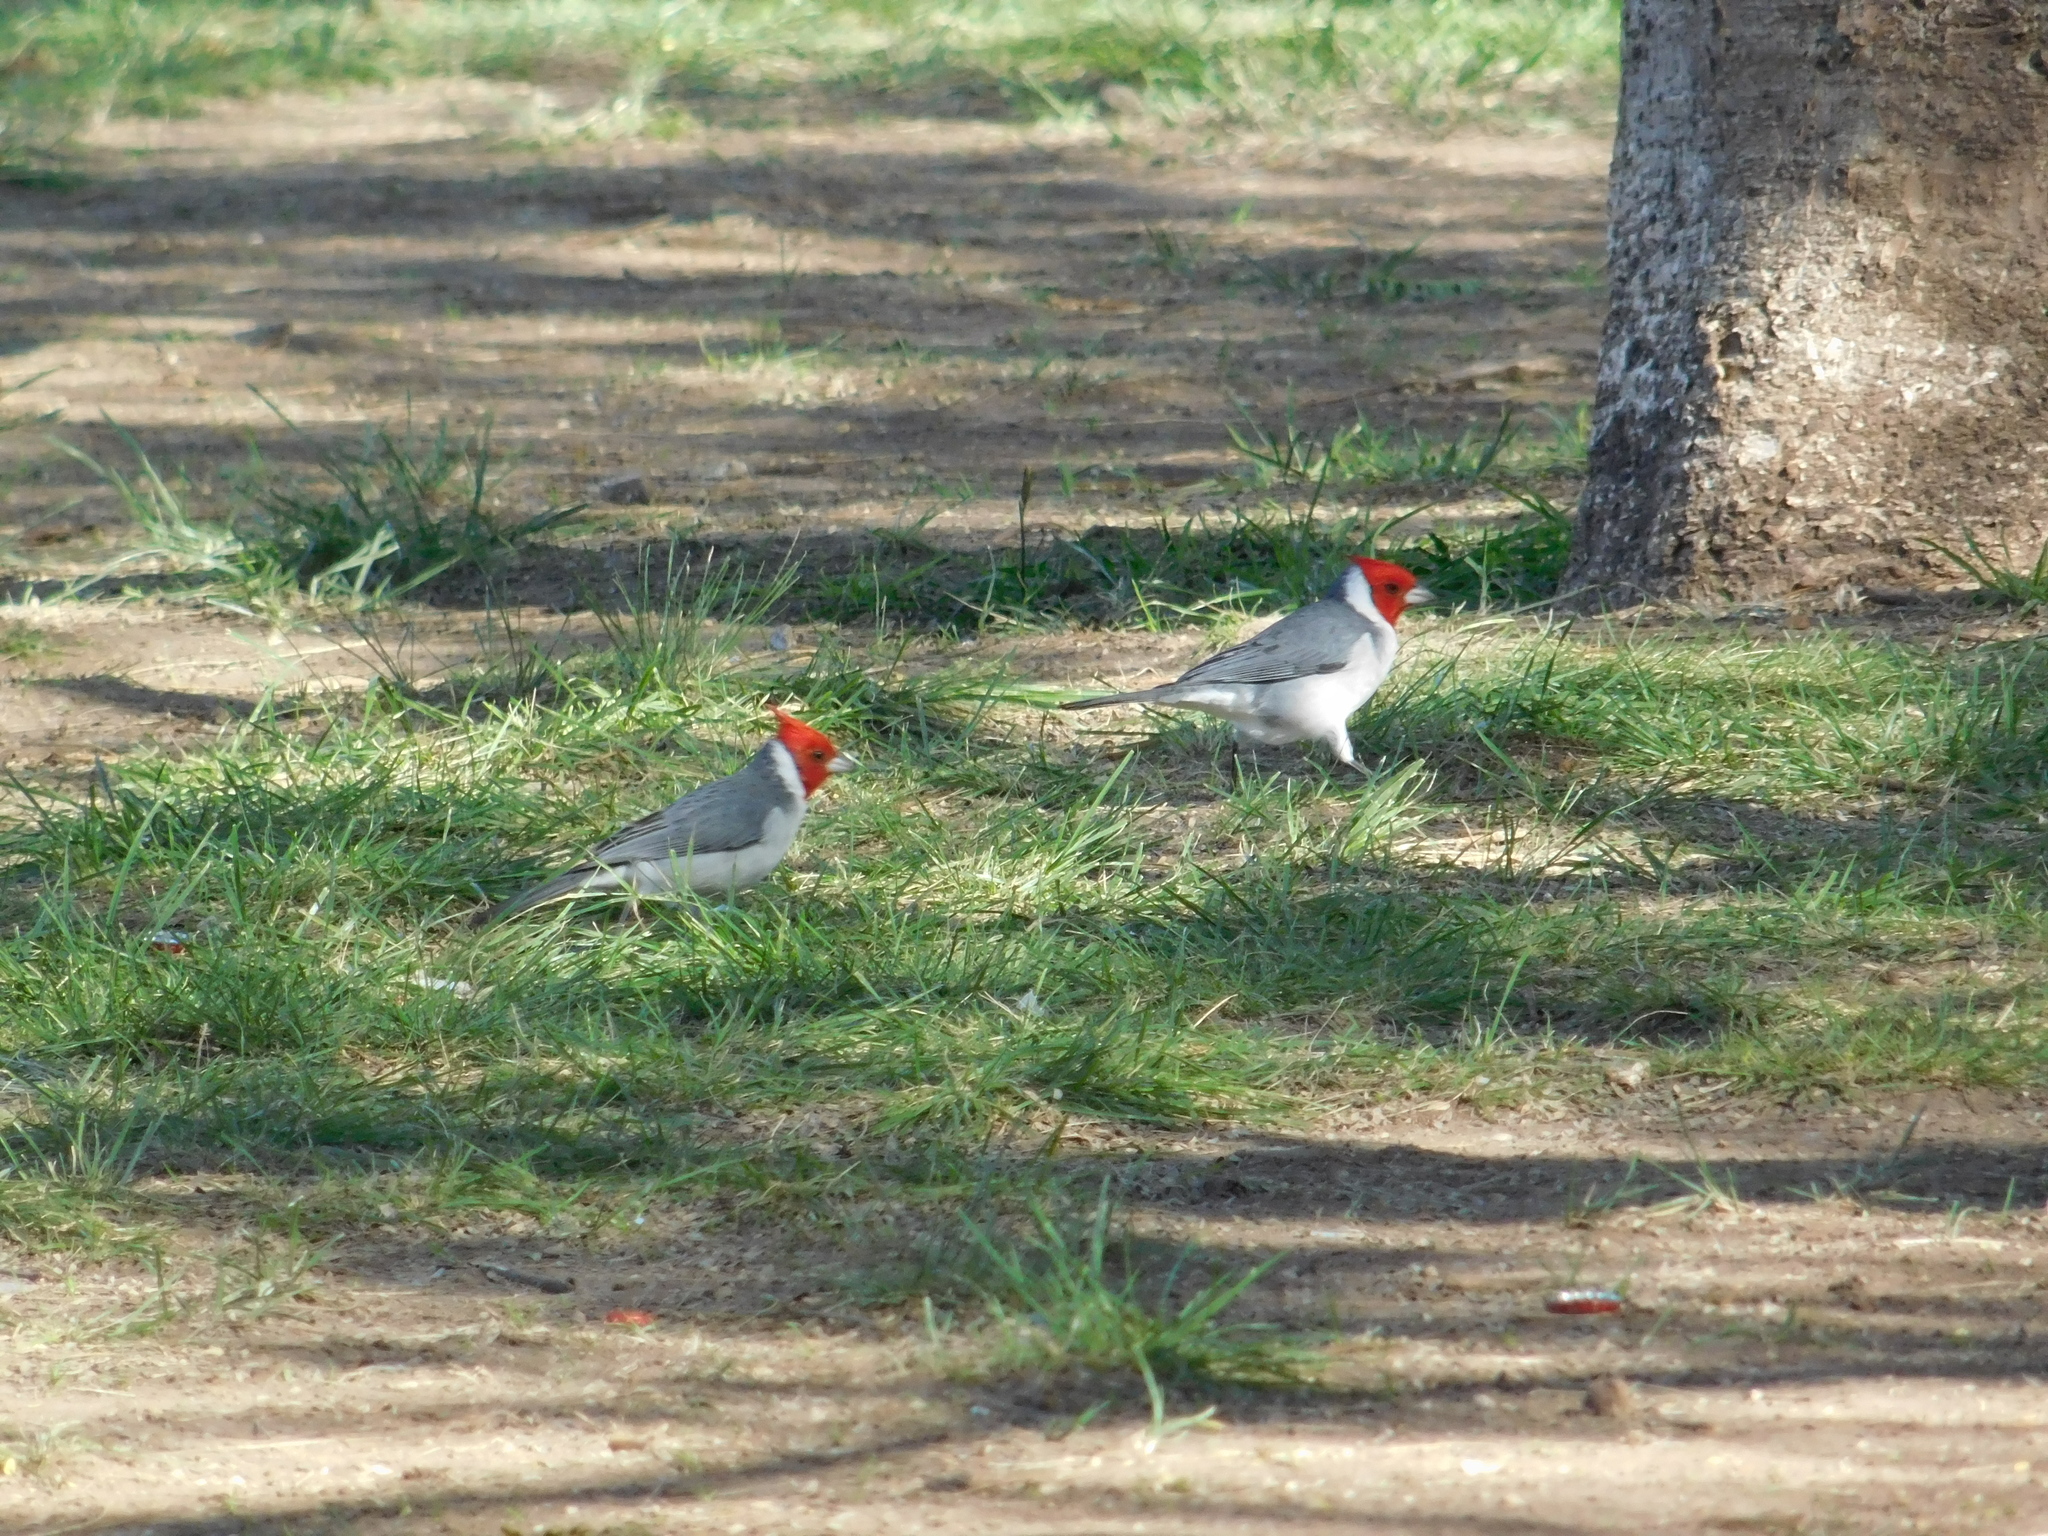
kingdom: Animalia
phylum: Chordata
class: Aves
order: Passeriformes
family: Thraupidae
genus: Paroaria
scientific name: Paroaria coronata
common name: Red-crested cardinal
